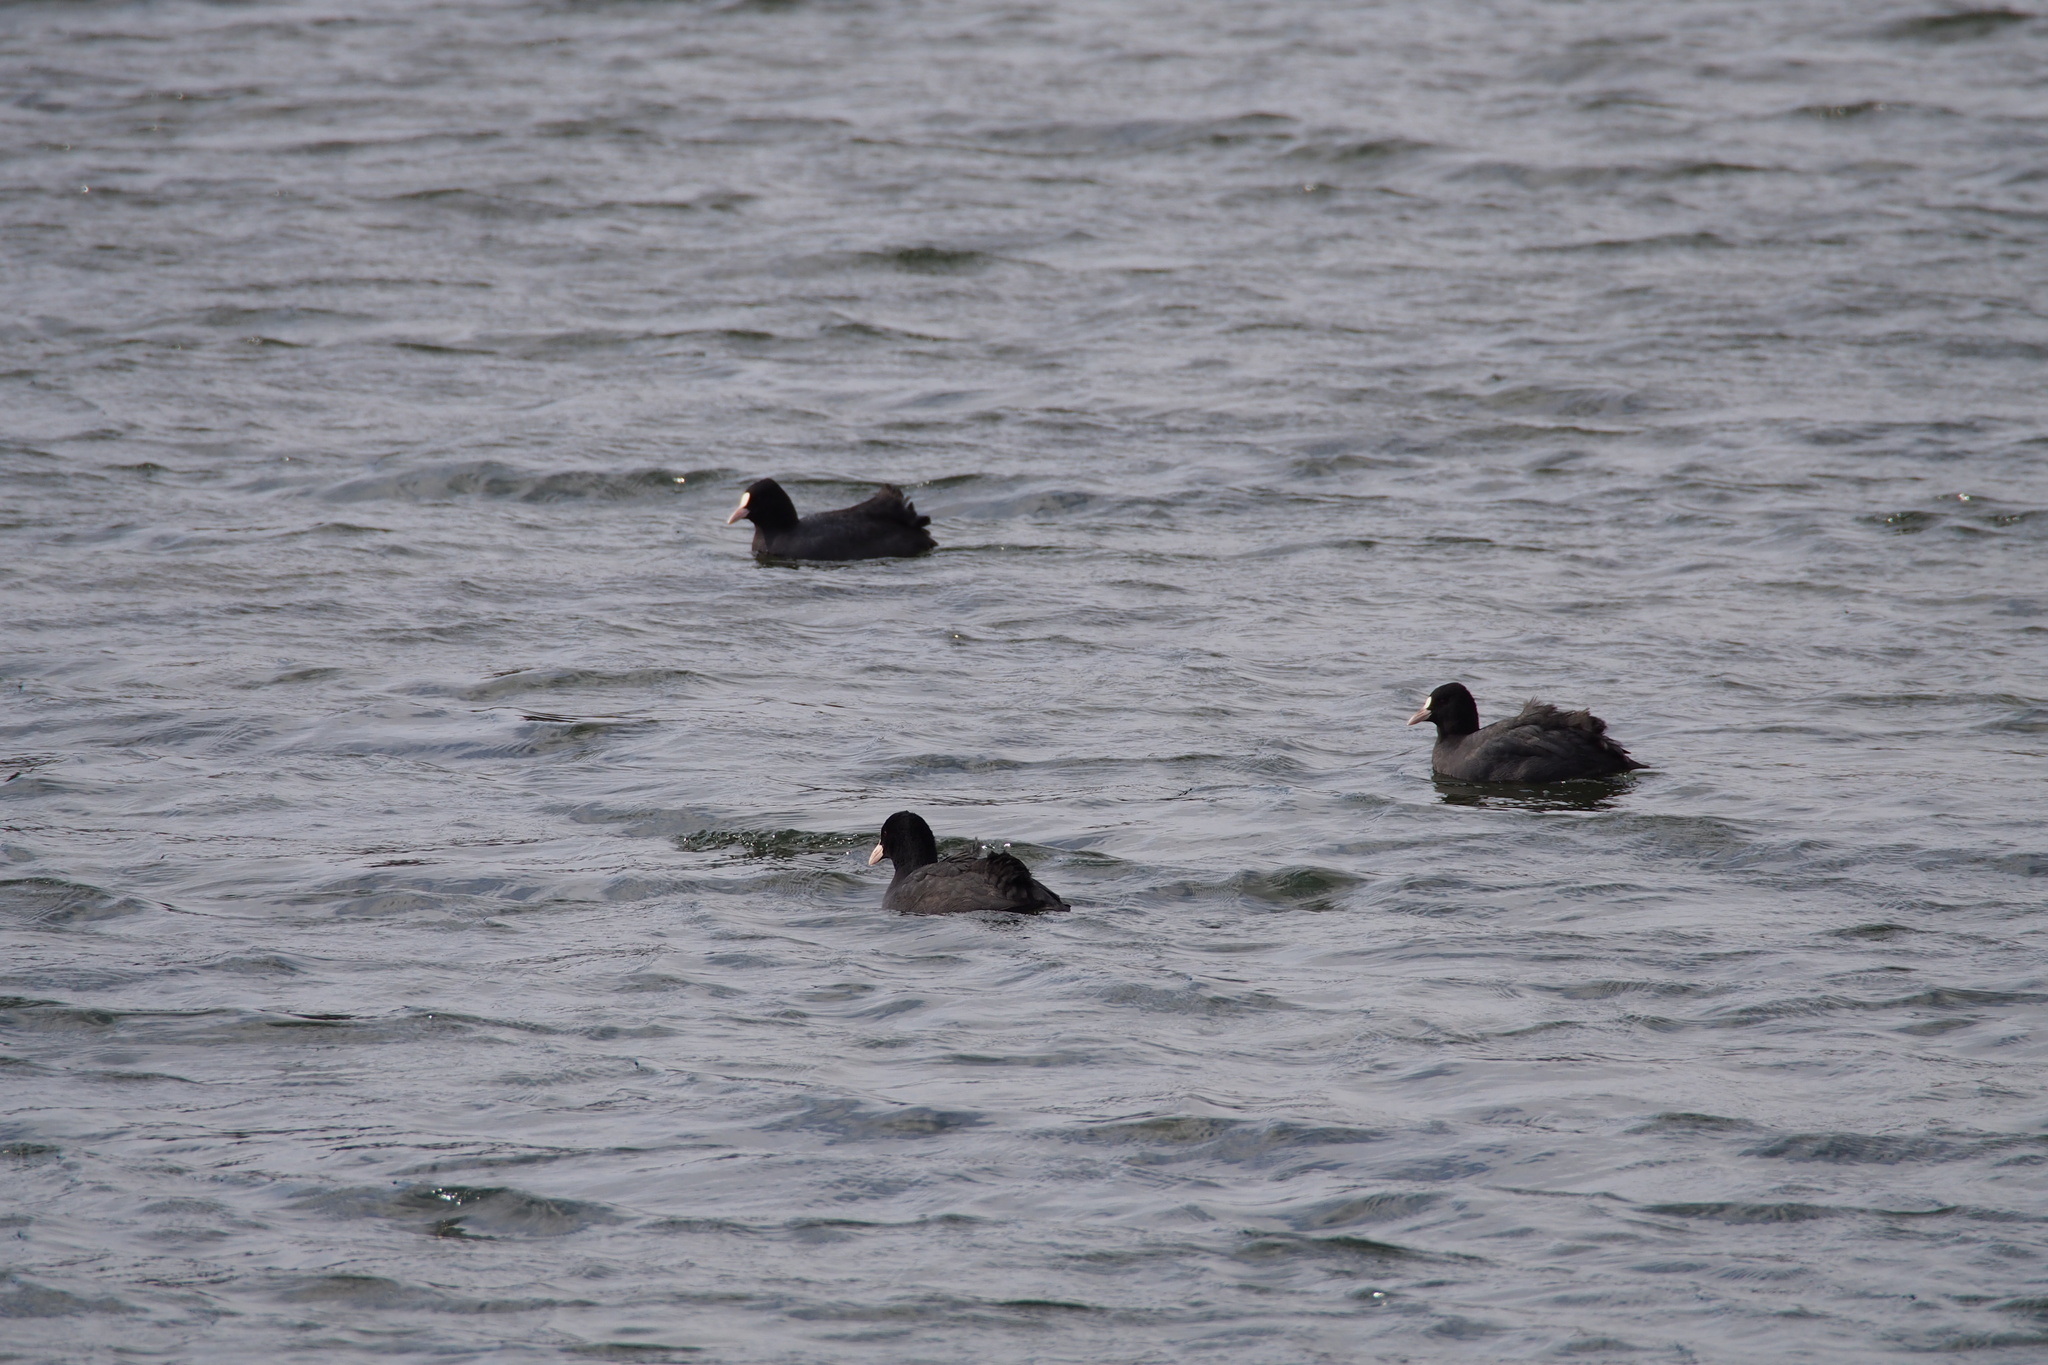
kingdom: Animalia
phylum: Chordata
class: Aves
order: Gruiformes
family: Rallidae
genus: Fulica
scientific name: Fulica atra
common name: Eurasian coot
